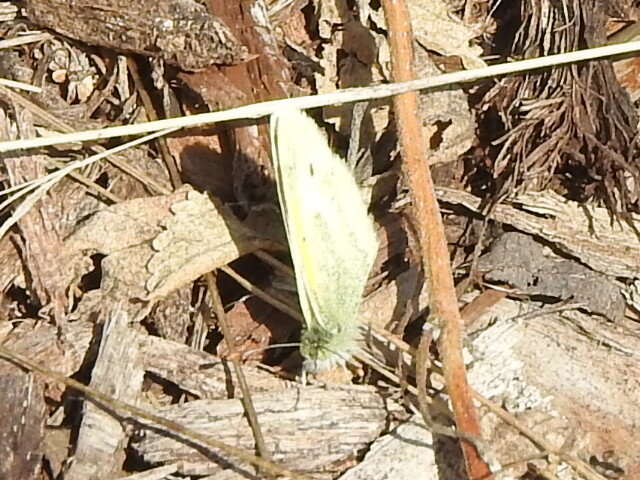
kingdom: Animalia
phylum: Arthropoda
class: Insecta
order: Lepidoptera
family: Pieridae
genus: Nathalis
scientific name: Nathalis iole
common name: Dainty sulphur
